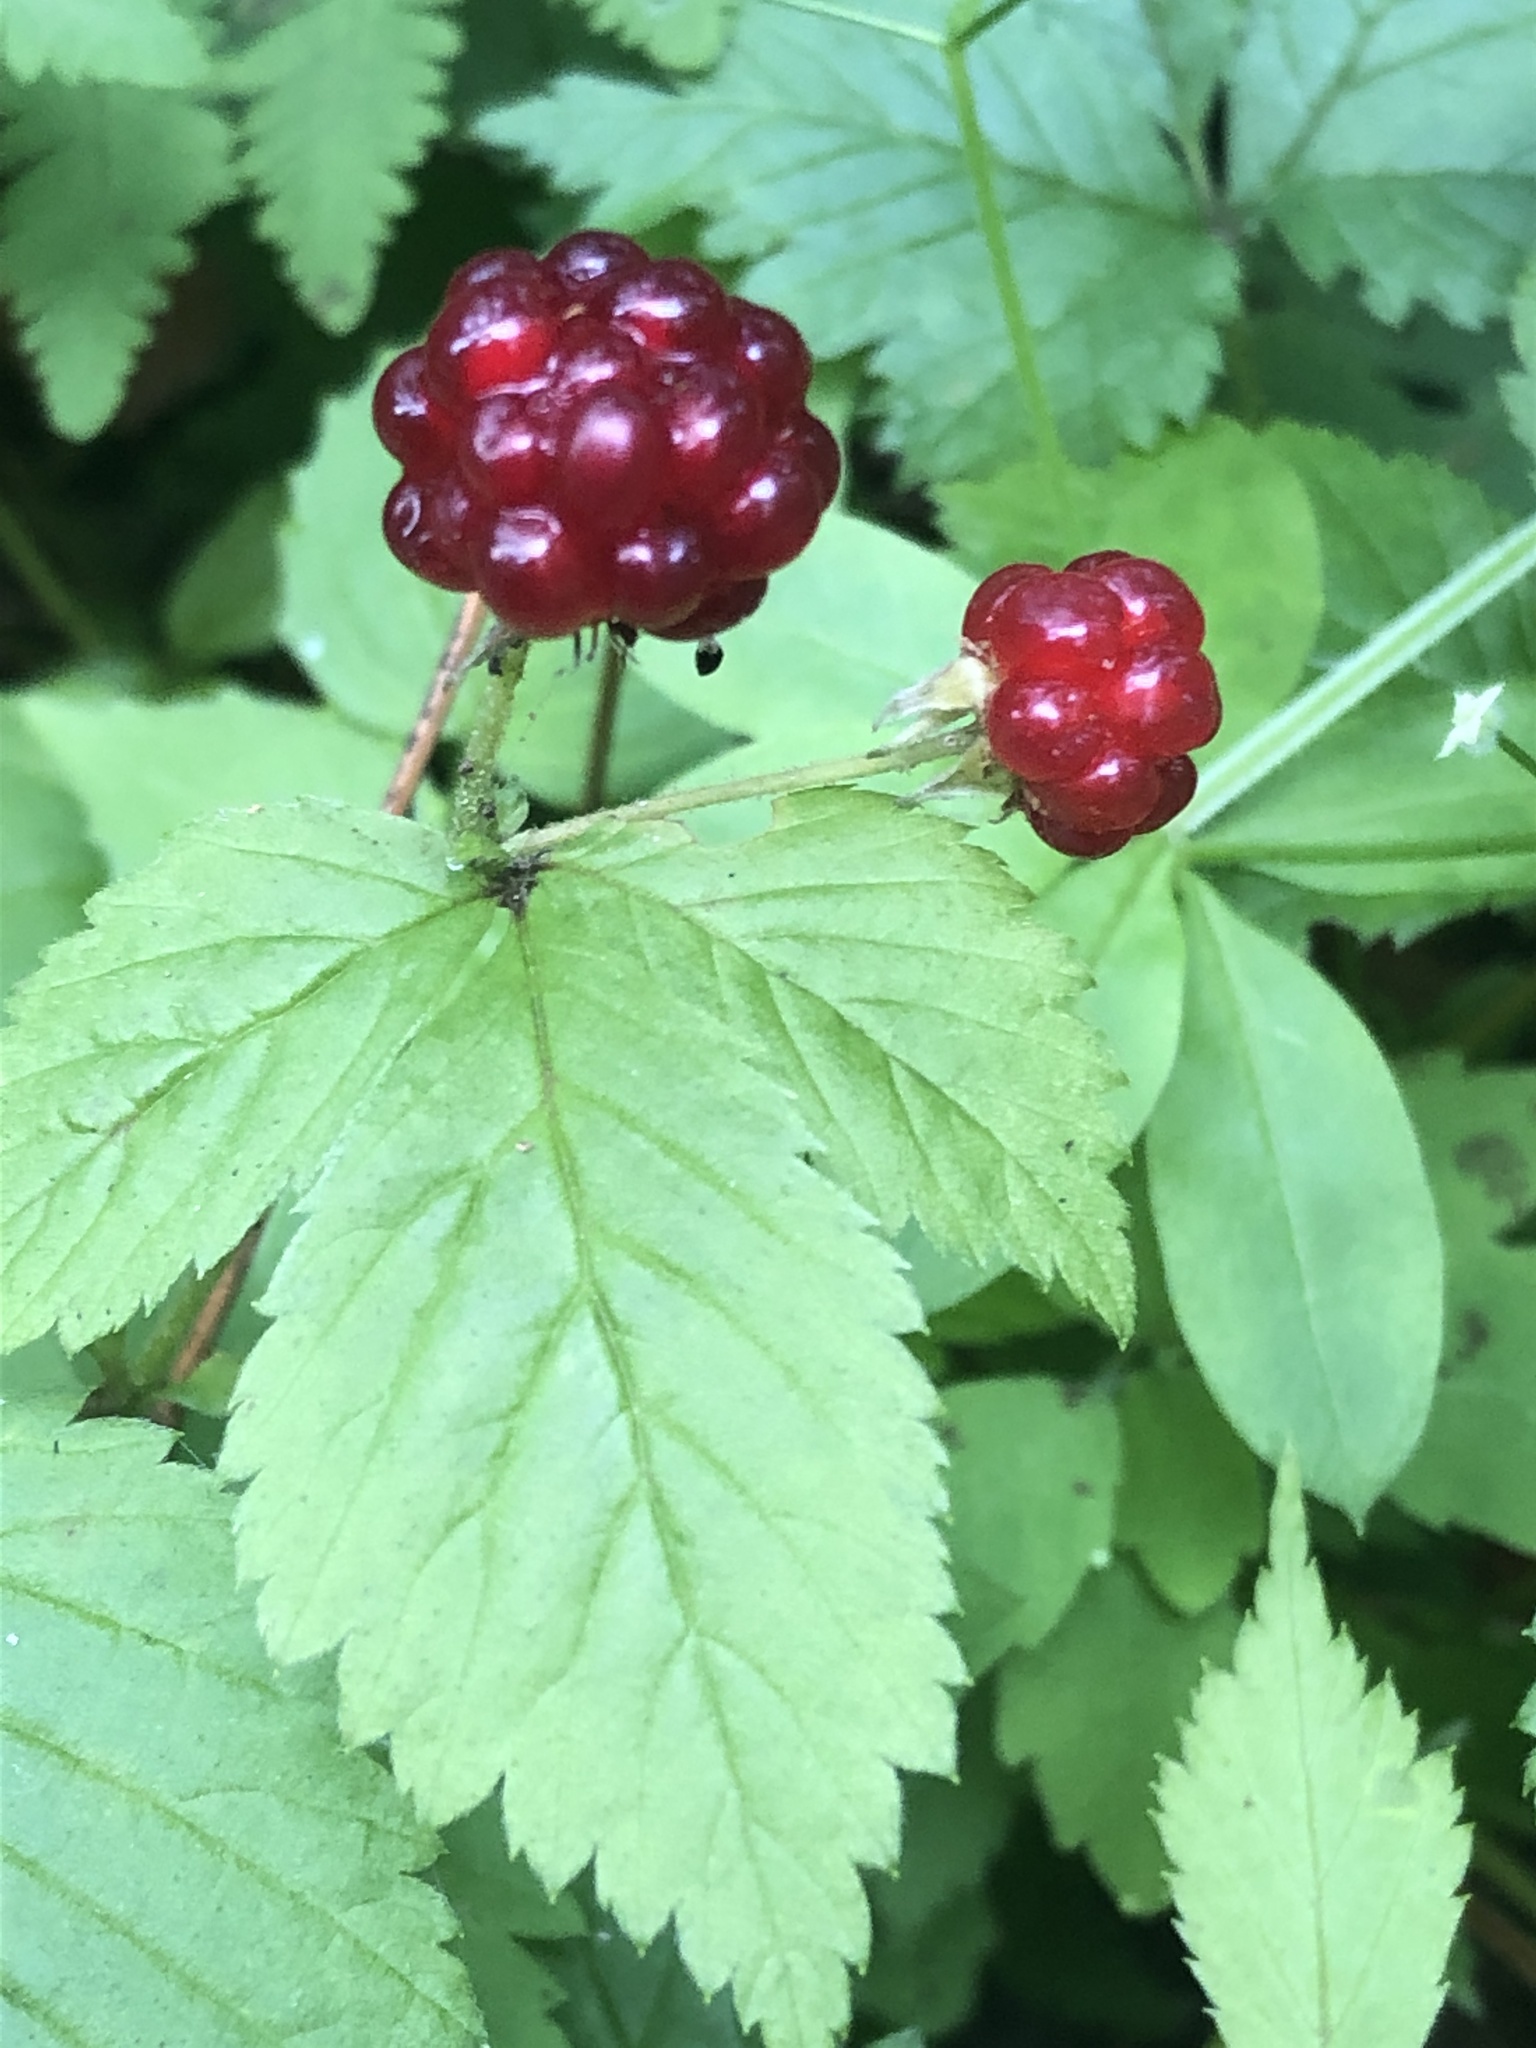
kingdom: Plantae
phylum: Tracheophyta
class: Magnoliopsida
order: Rosales
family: Rosaceae
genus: Rubus
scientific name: Rubus pubescens
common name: Dwarf raspberry
